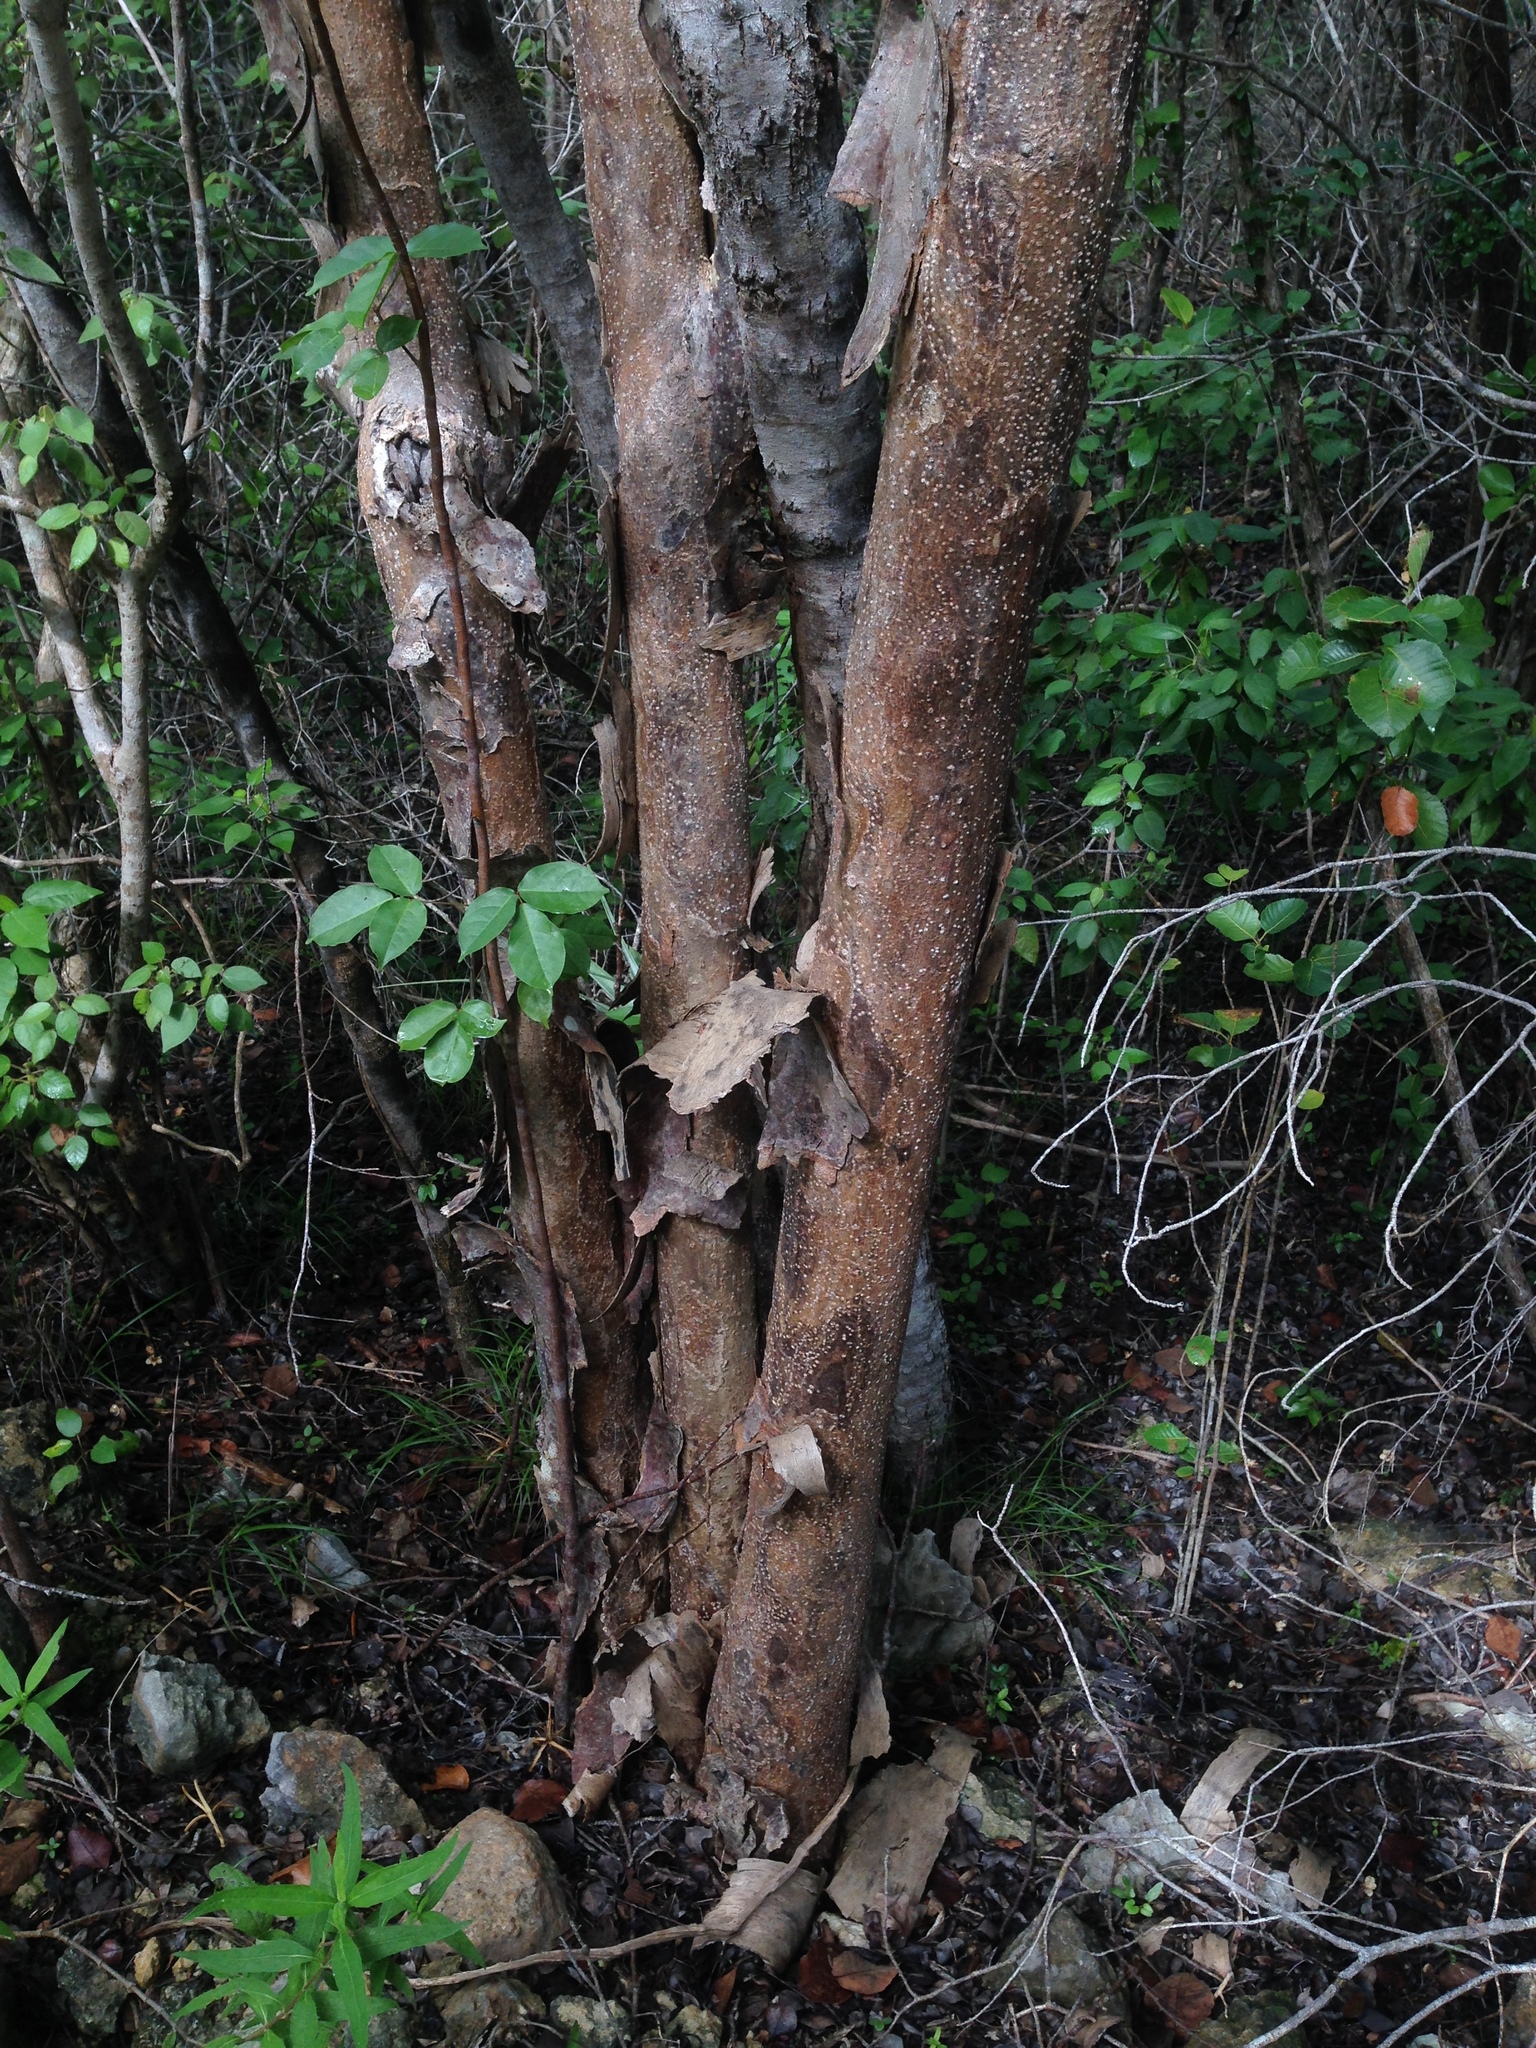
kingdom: Plantae
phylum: Tracheophyta
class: Magnoliopsida
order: Malpighiales
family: Erythroxylaceae
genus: Erythroxylum
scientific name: Erythroxylum rotundifolium
